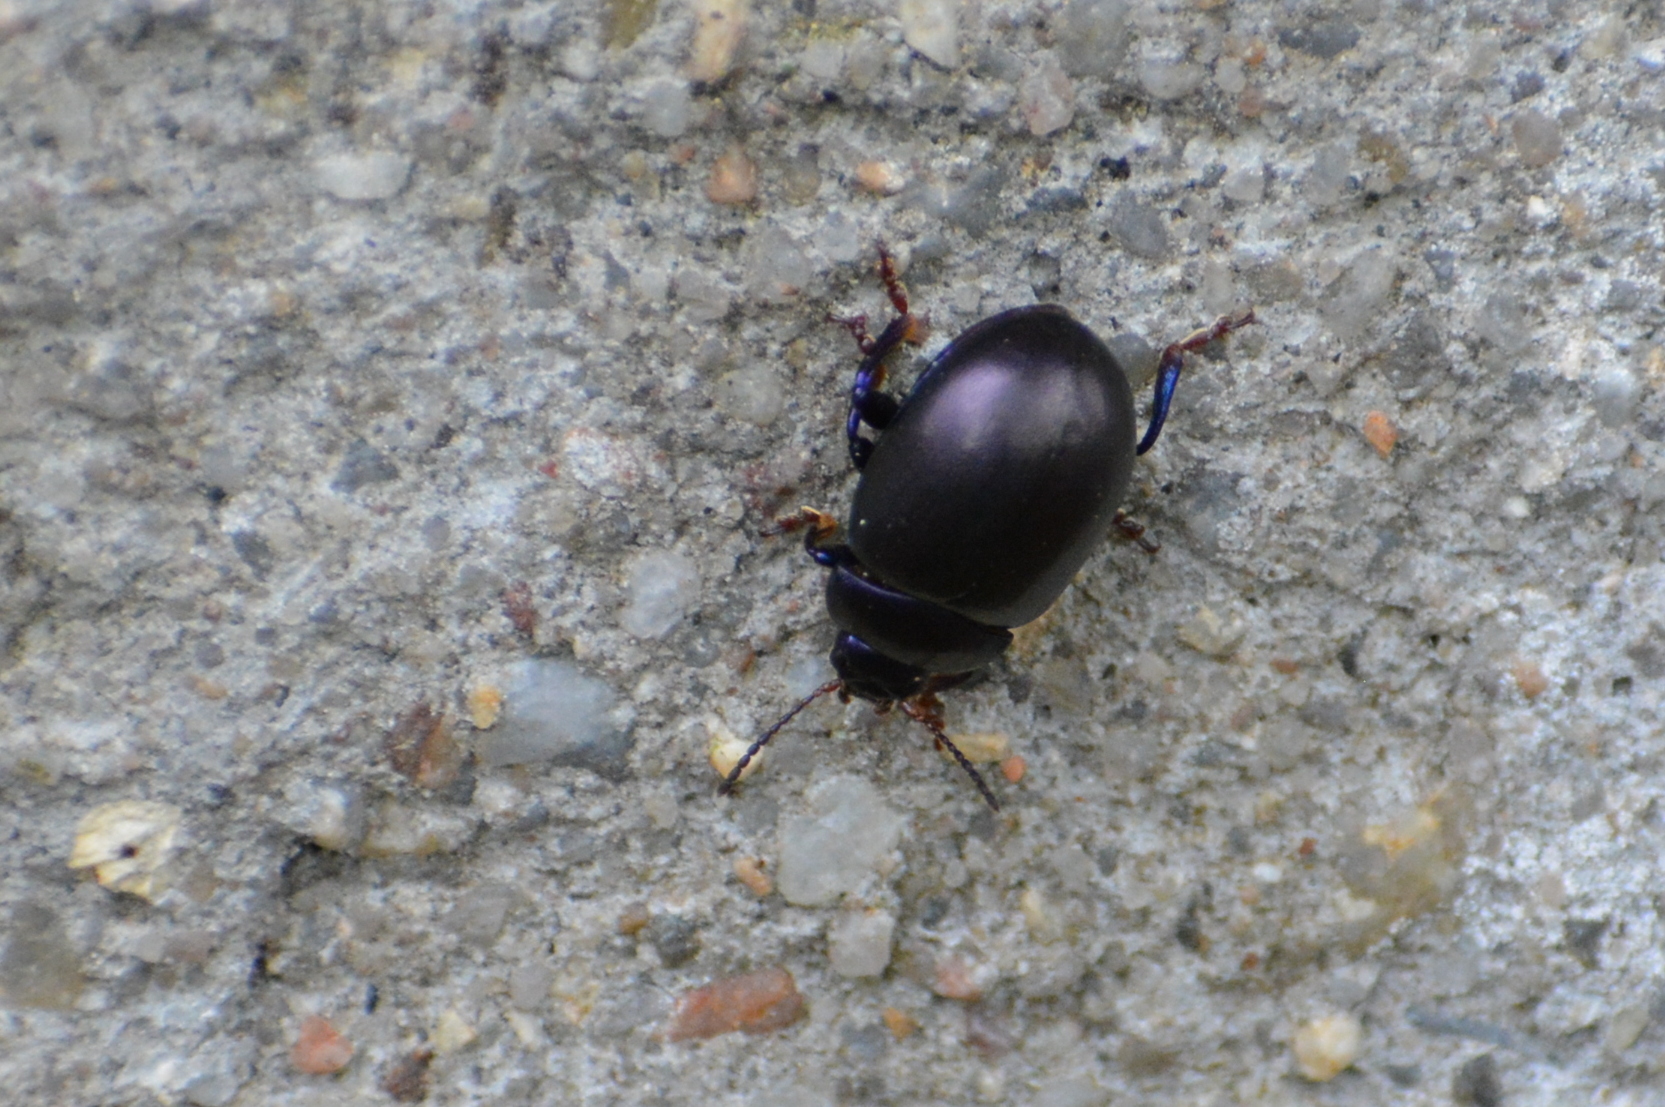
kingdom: Animalia
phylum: Arthropoda
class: Insecta
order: Coleoptera
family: Chrysomelidae
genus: Chrysolina
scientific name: Chrysolina sturmi
